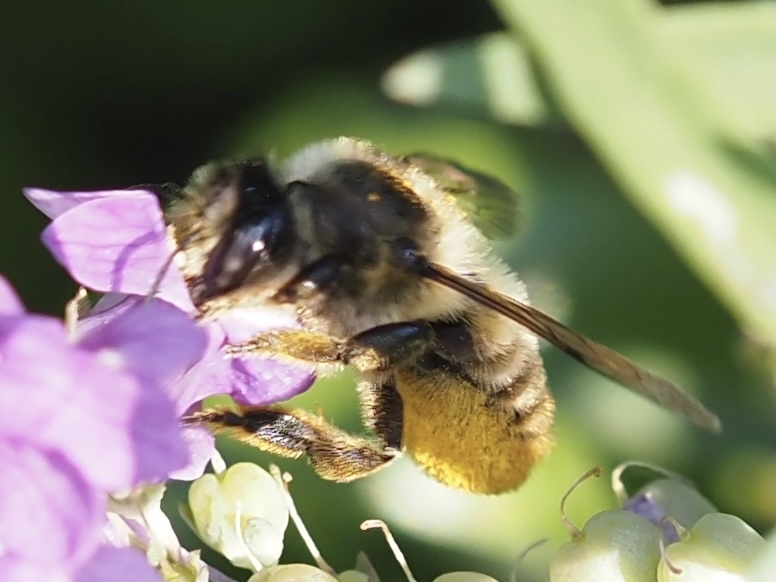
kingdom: Animalia
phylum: Arthropoda
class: Insecta
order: Hymenoptera
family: Megachilidae
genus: Megachile
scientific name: Megachile perihirta
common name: Western leafcutter
